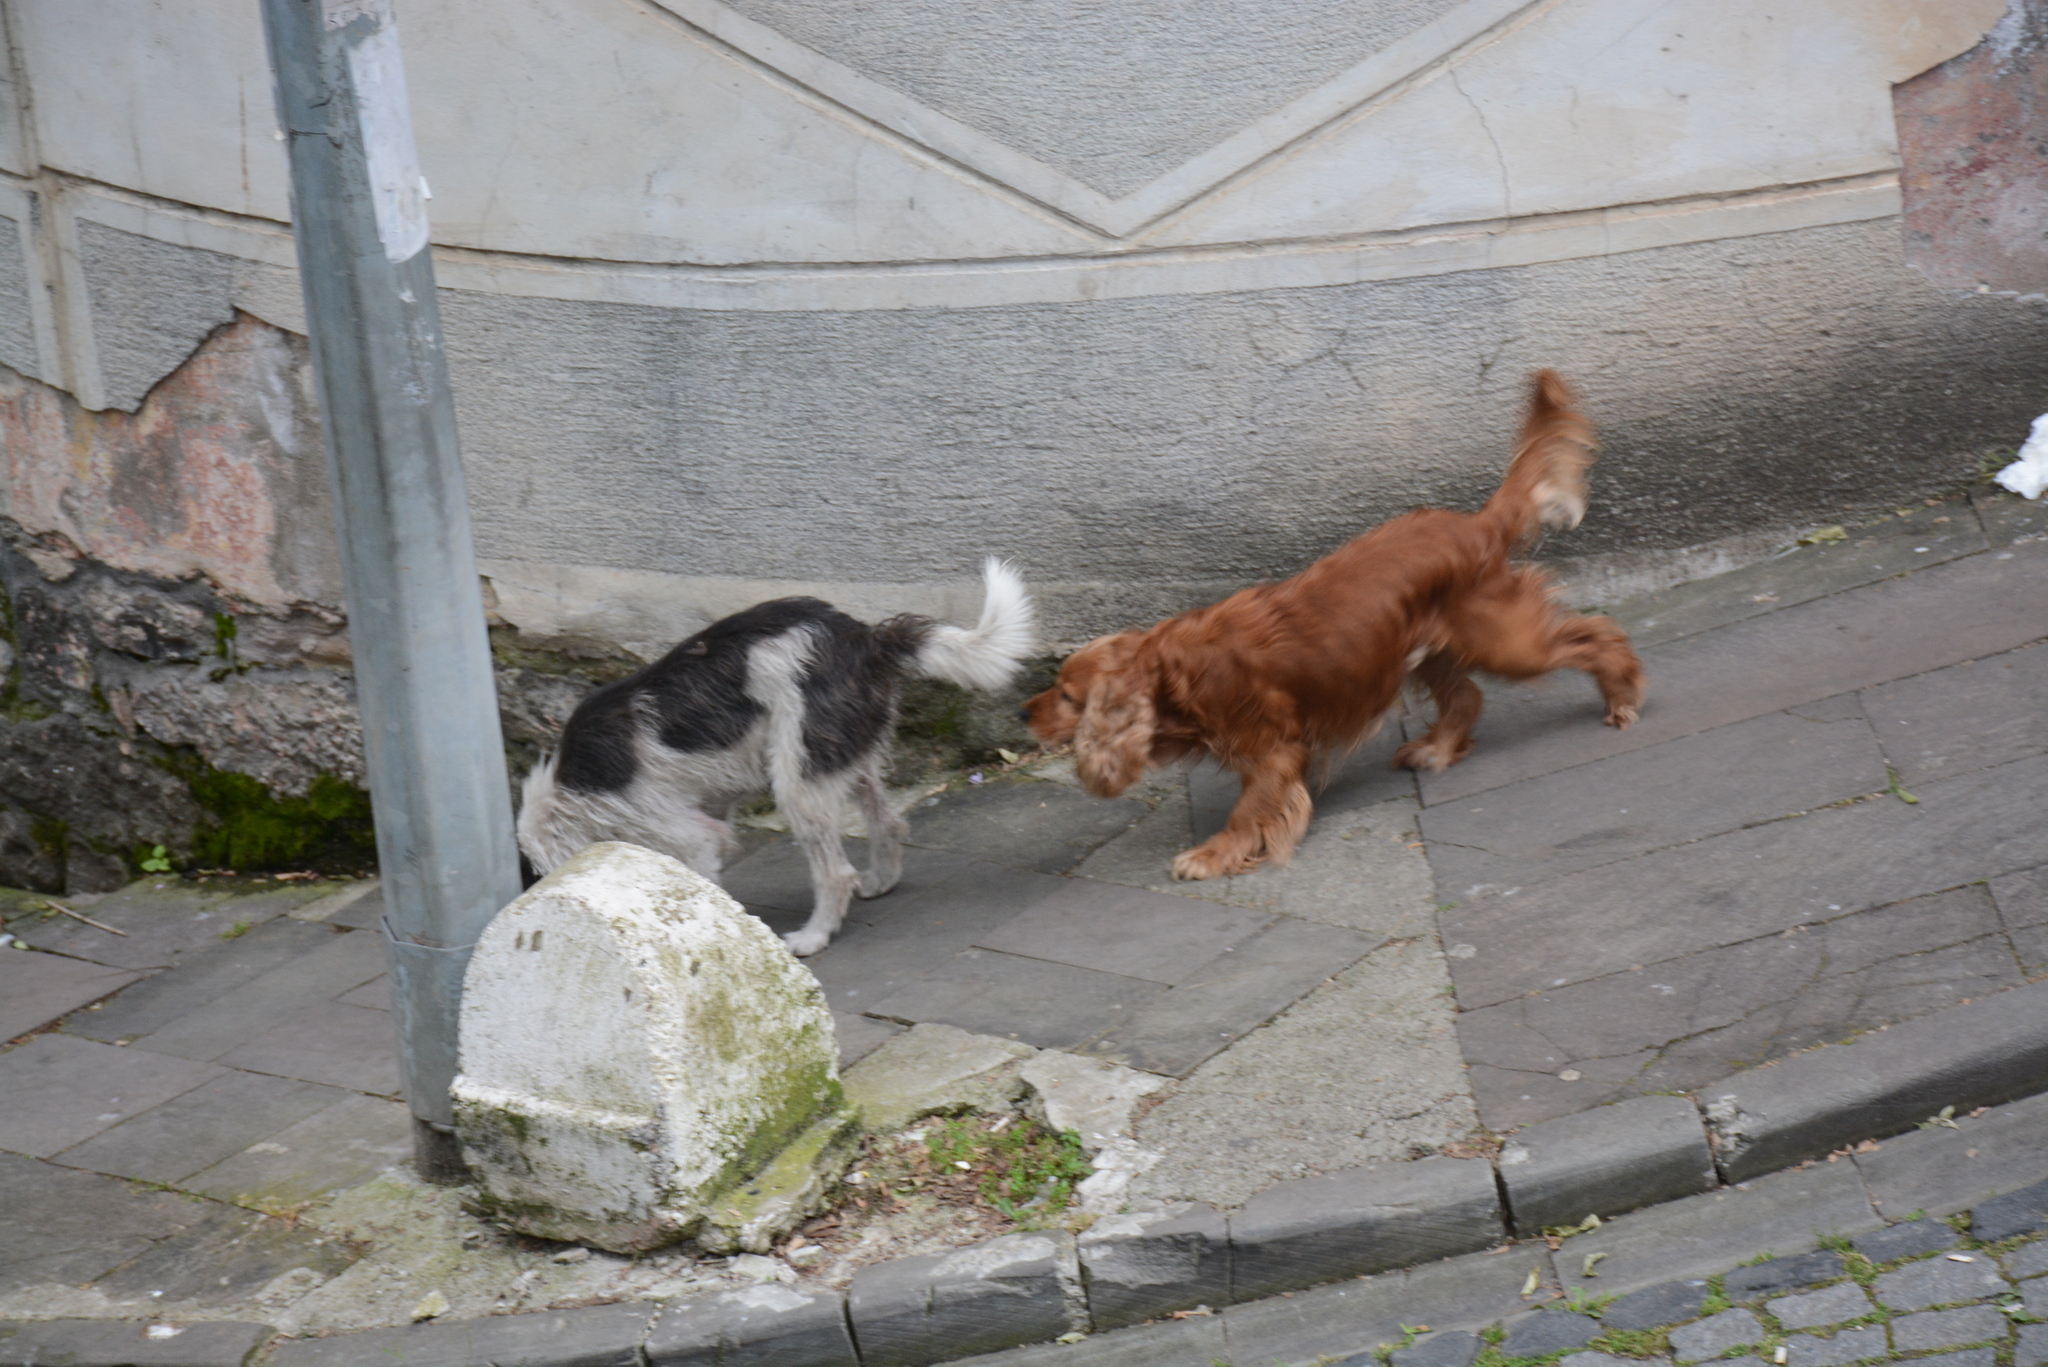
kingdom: Animalia
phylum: Chordata
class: Mammalia
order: Carnivora
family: Canidae
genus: Canis
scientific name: Canis lupus
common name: Gray wolf
